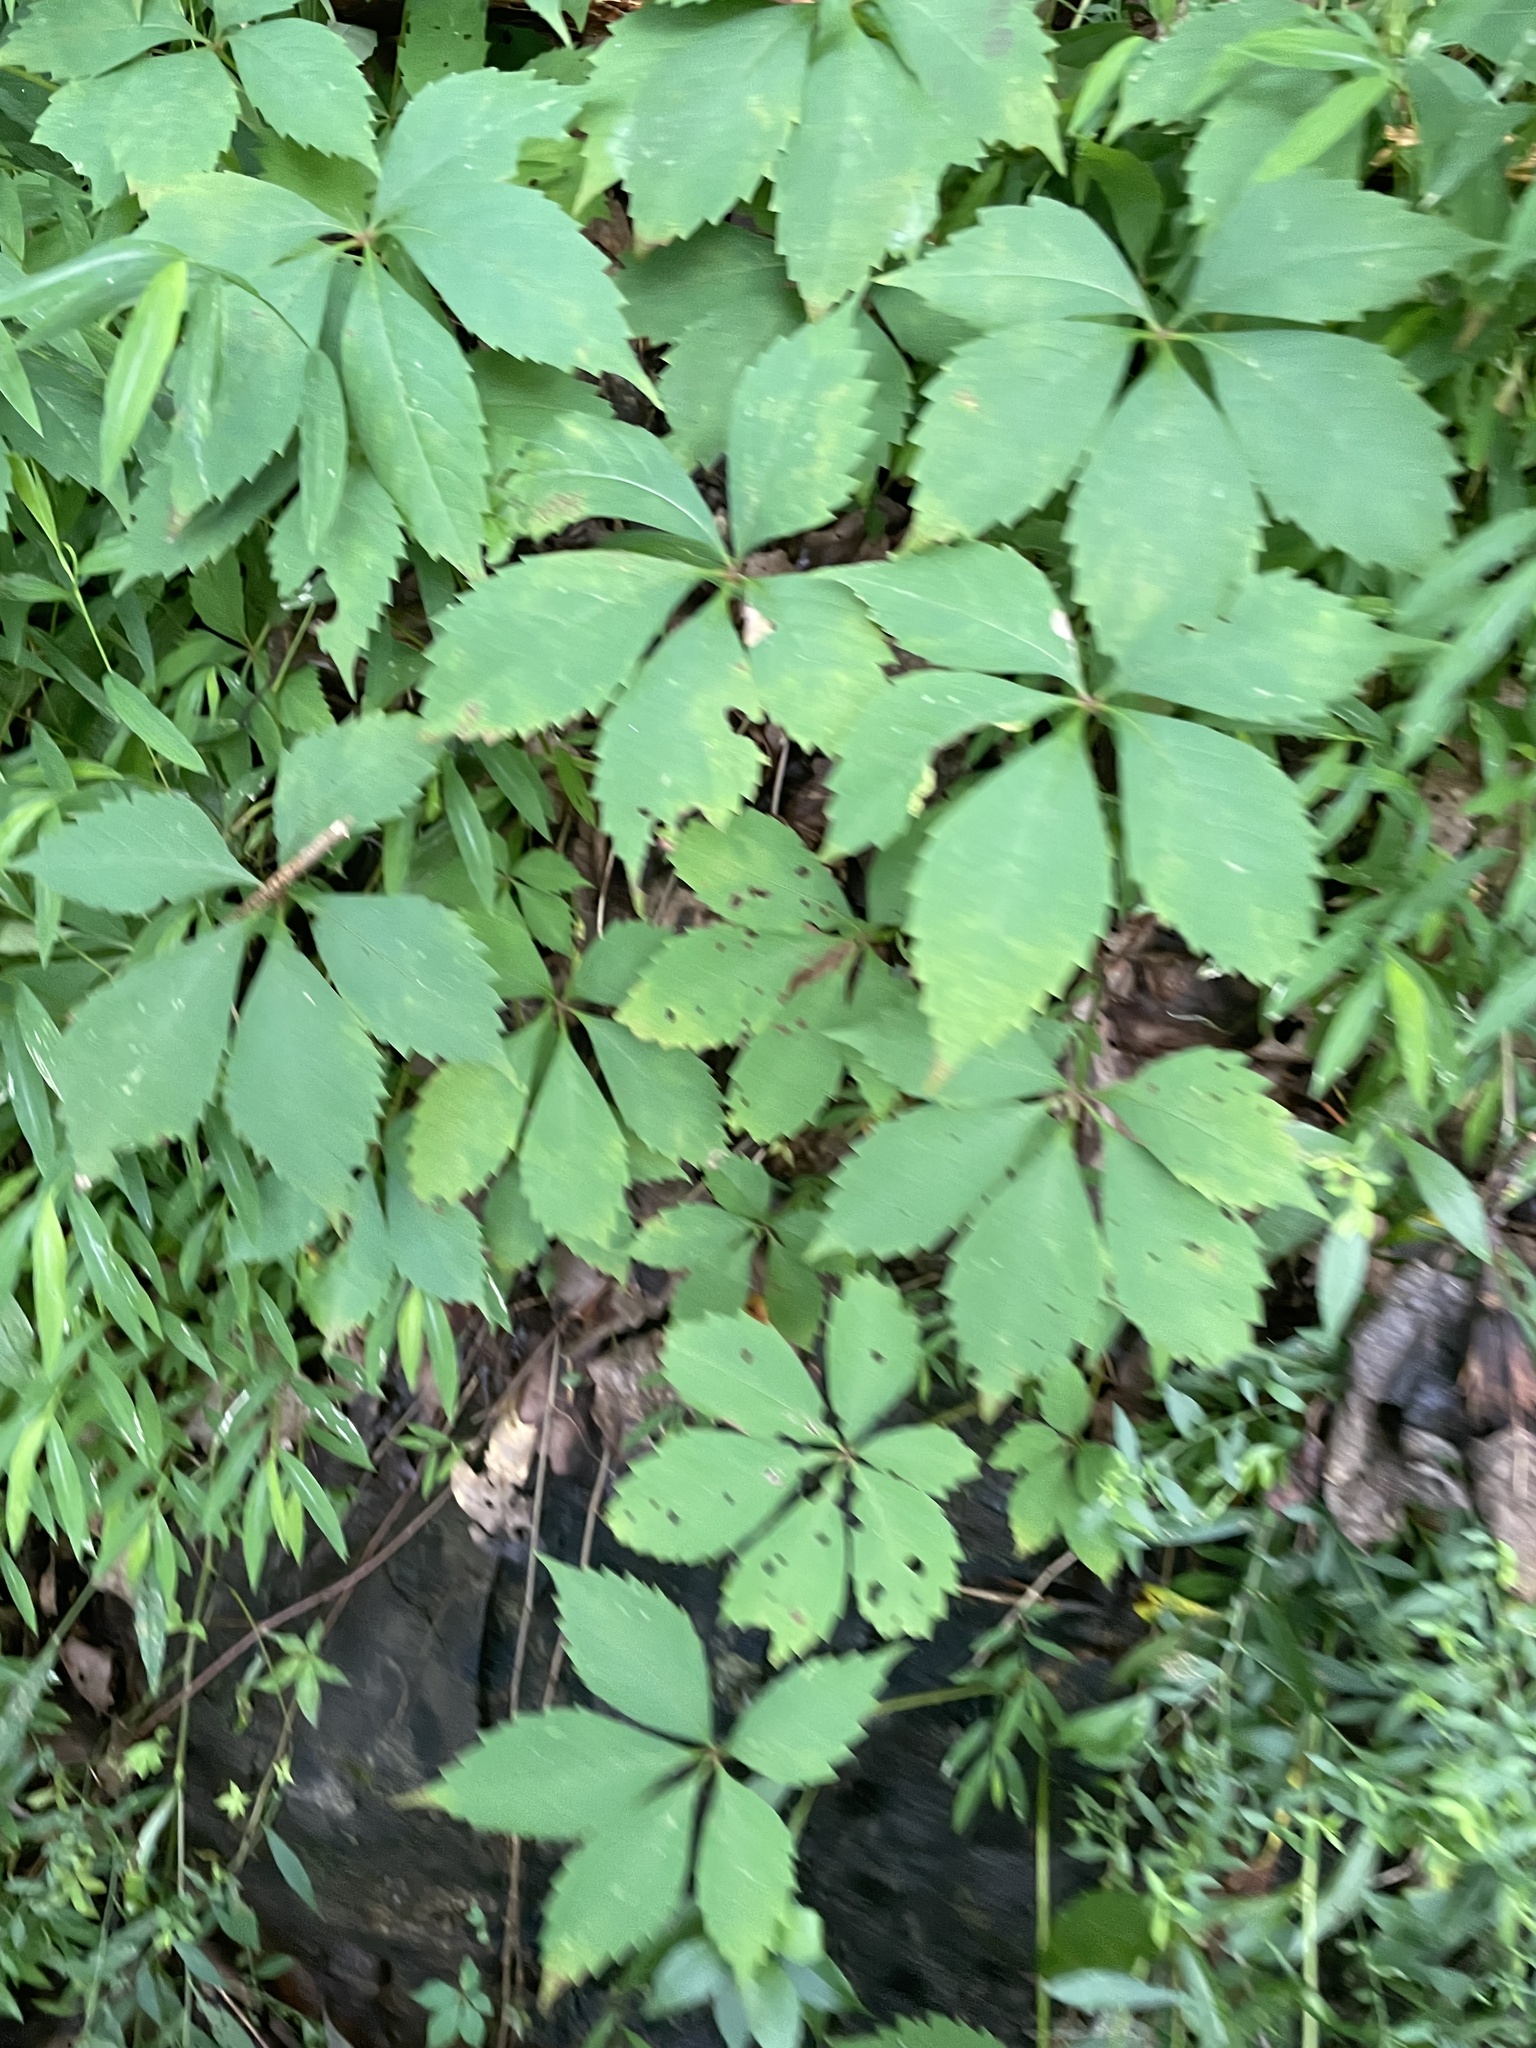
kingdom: Plantae
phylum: Tracheophyta
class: Magnoliopsida
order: Vitales
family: Vitaceae
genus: Parthenocissus
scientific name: Parthenocissus quinquefolia
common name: Virginia-creeper
